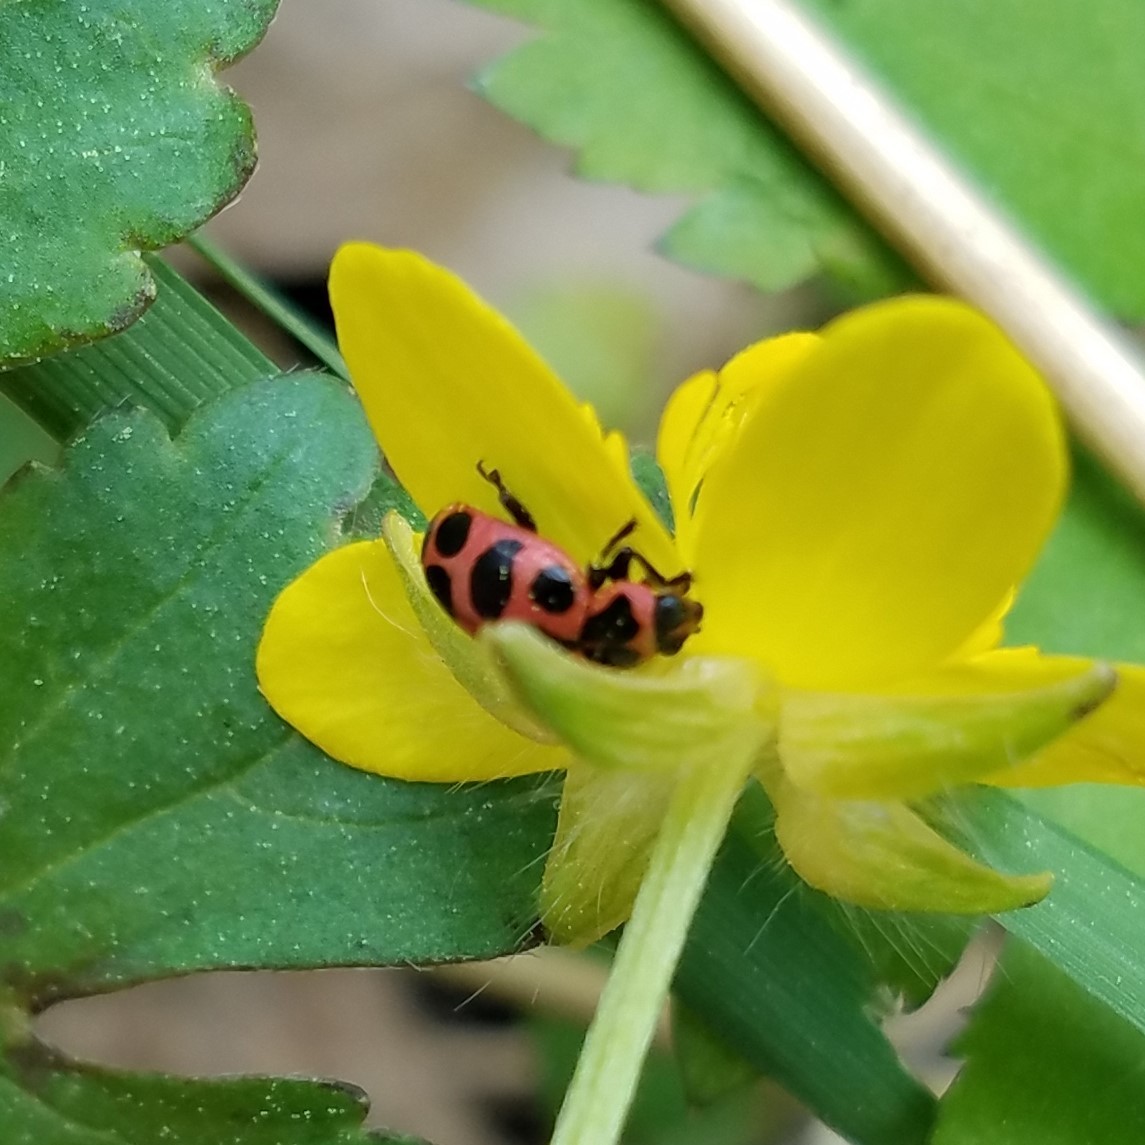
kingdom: Animalia
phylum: Arthropoda
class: Insecta
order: Coleoptera
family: Coccinellidae
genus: Coleomegilla
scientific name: Coleomegilla maculata
